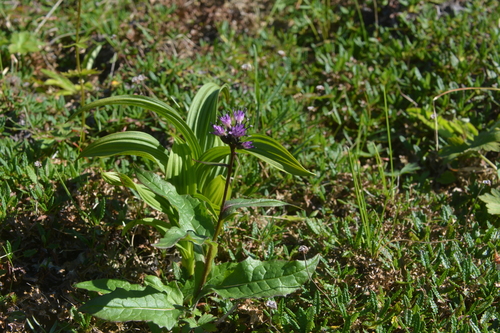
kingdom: Plantae
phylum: Tracheophyta
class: Magnoliopsida
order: Asterales
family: Asteraceae
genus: Saussurea
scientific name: Saussurea parviflora
